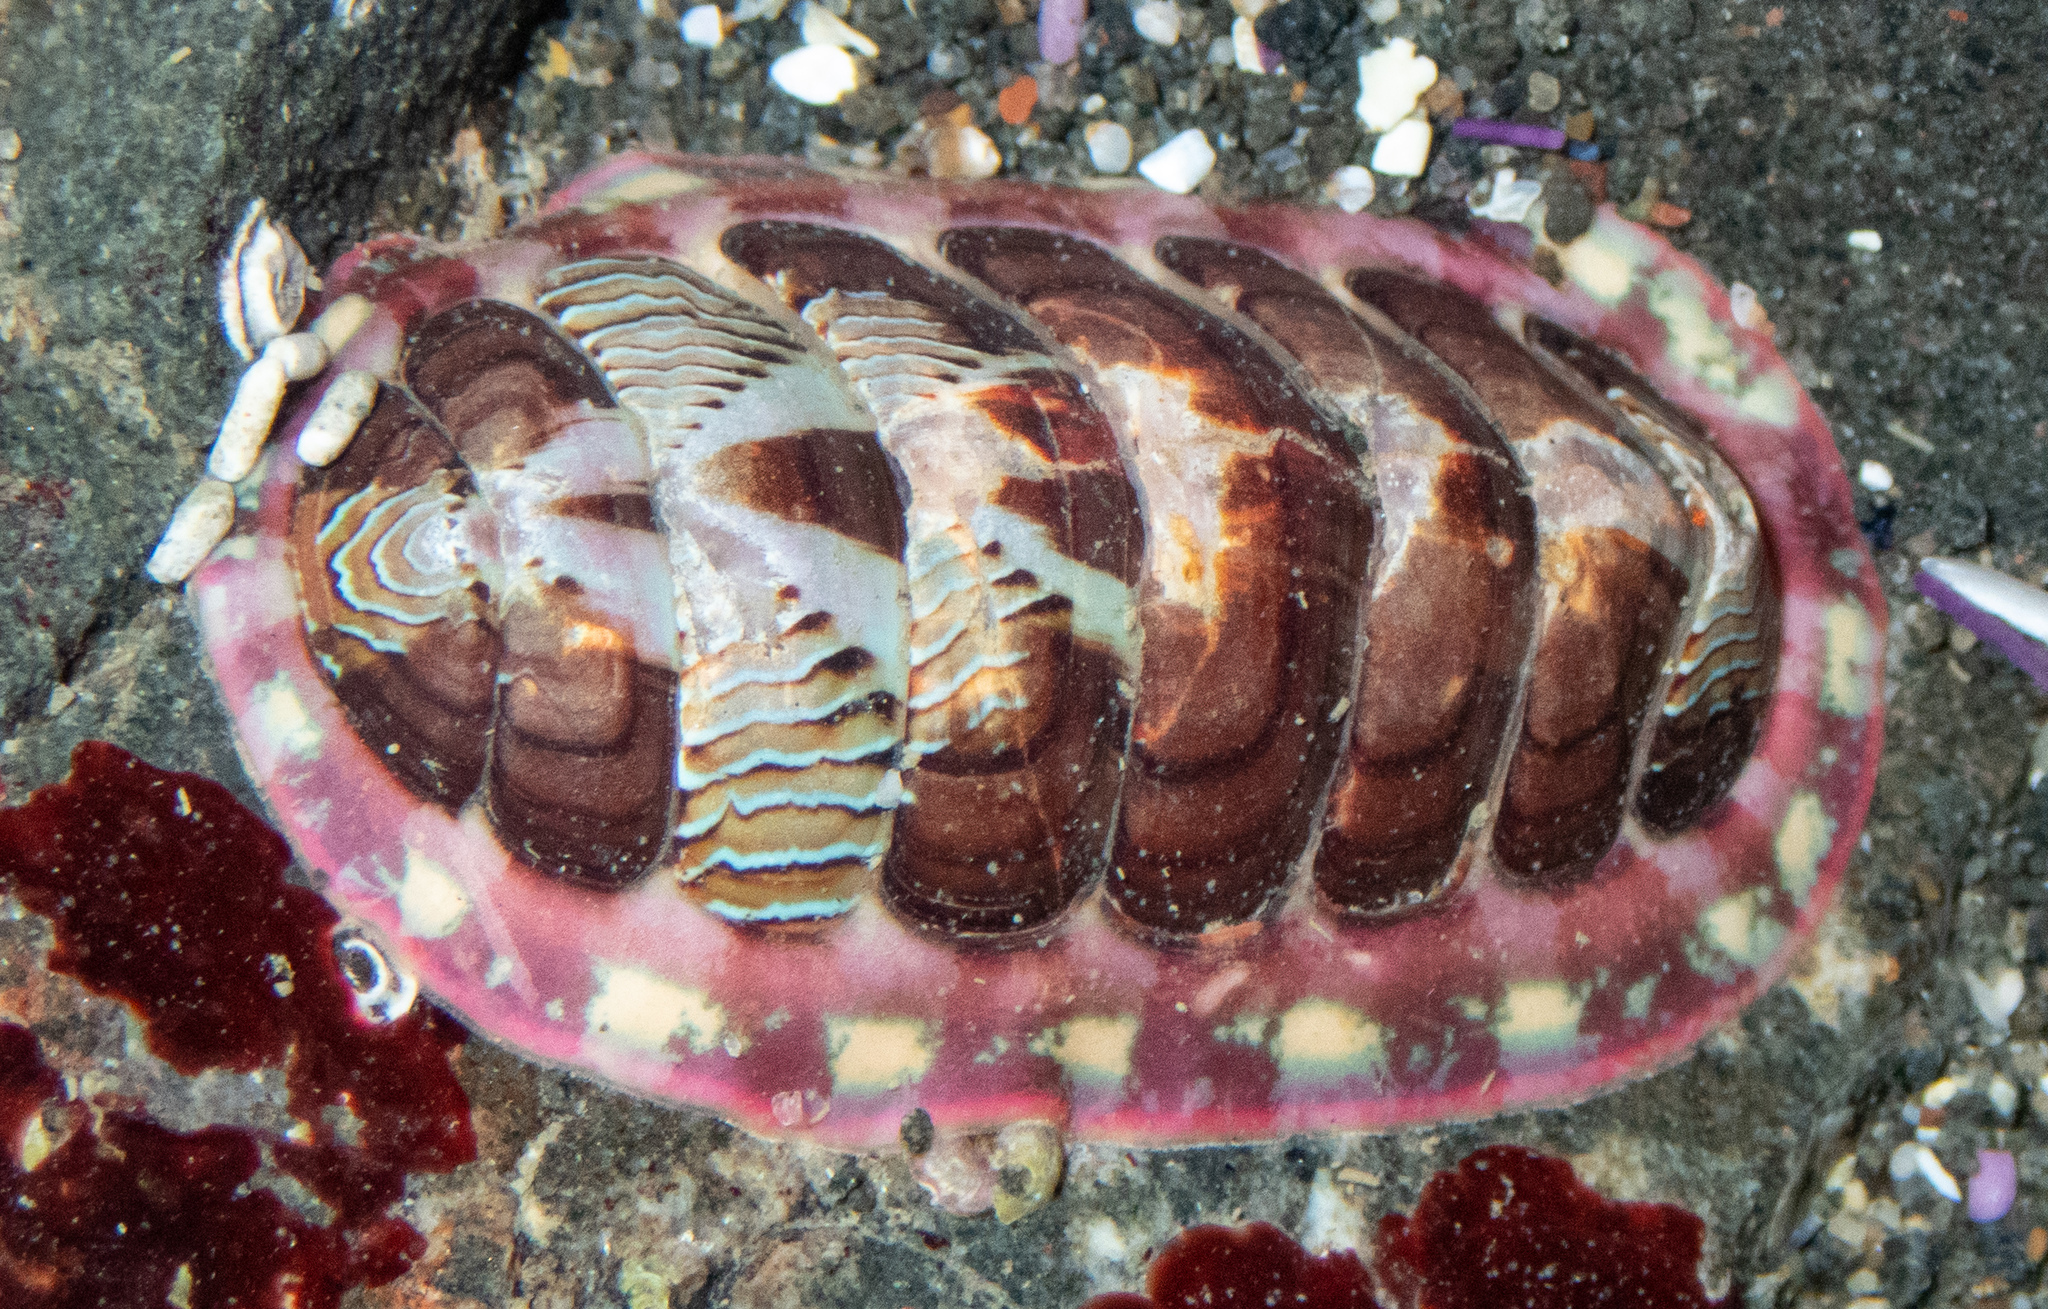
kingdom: Animalia
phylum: Mollusca
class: Polyplacophora
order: Chitonida
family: Tonicellidae
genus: Tonicella
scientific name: Tonicella lineata
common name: Lined chiton
